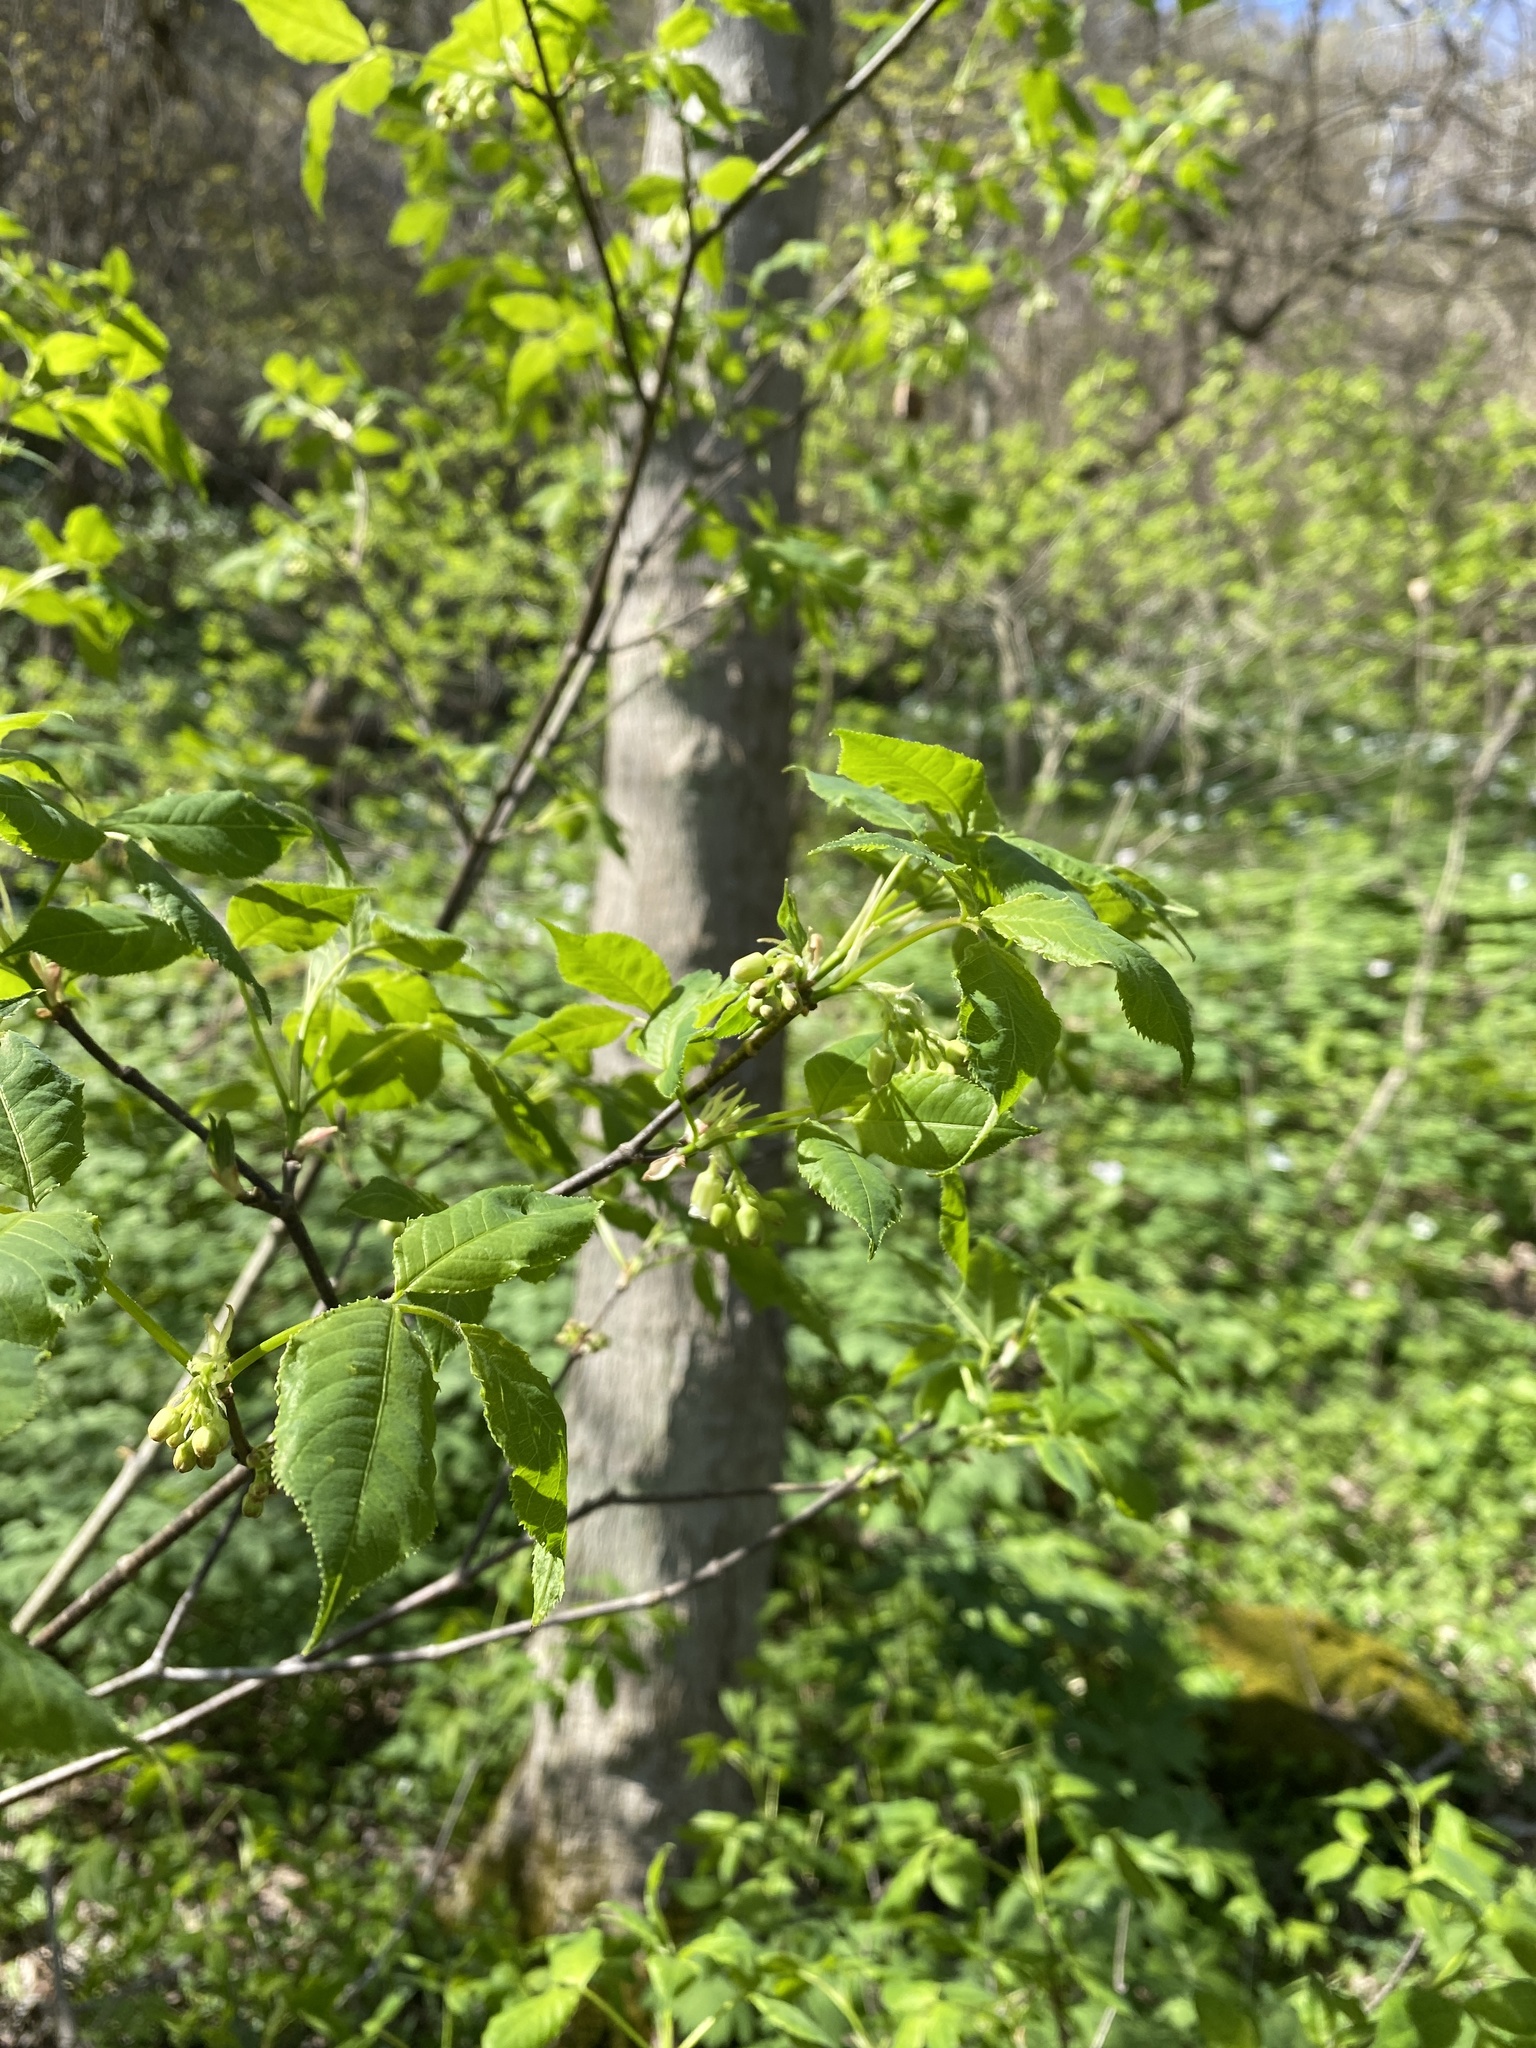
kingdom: Plantae
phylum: Tracheophyta
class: Magnoliopsida
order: Crossosomatales
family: Staphyleaceae
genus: Staphylea
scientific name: Staphylea trifolia
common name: American bladdernut
